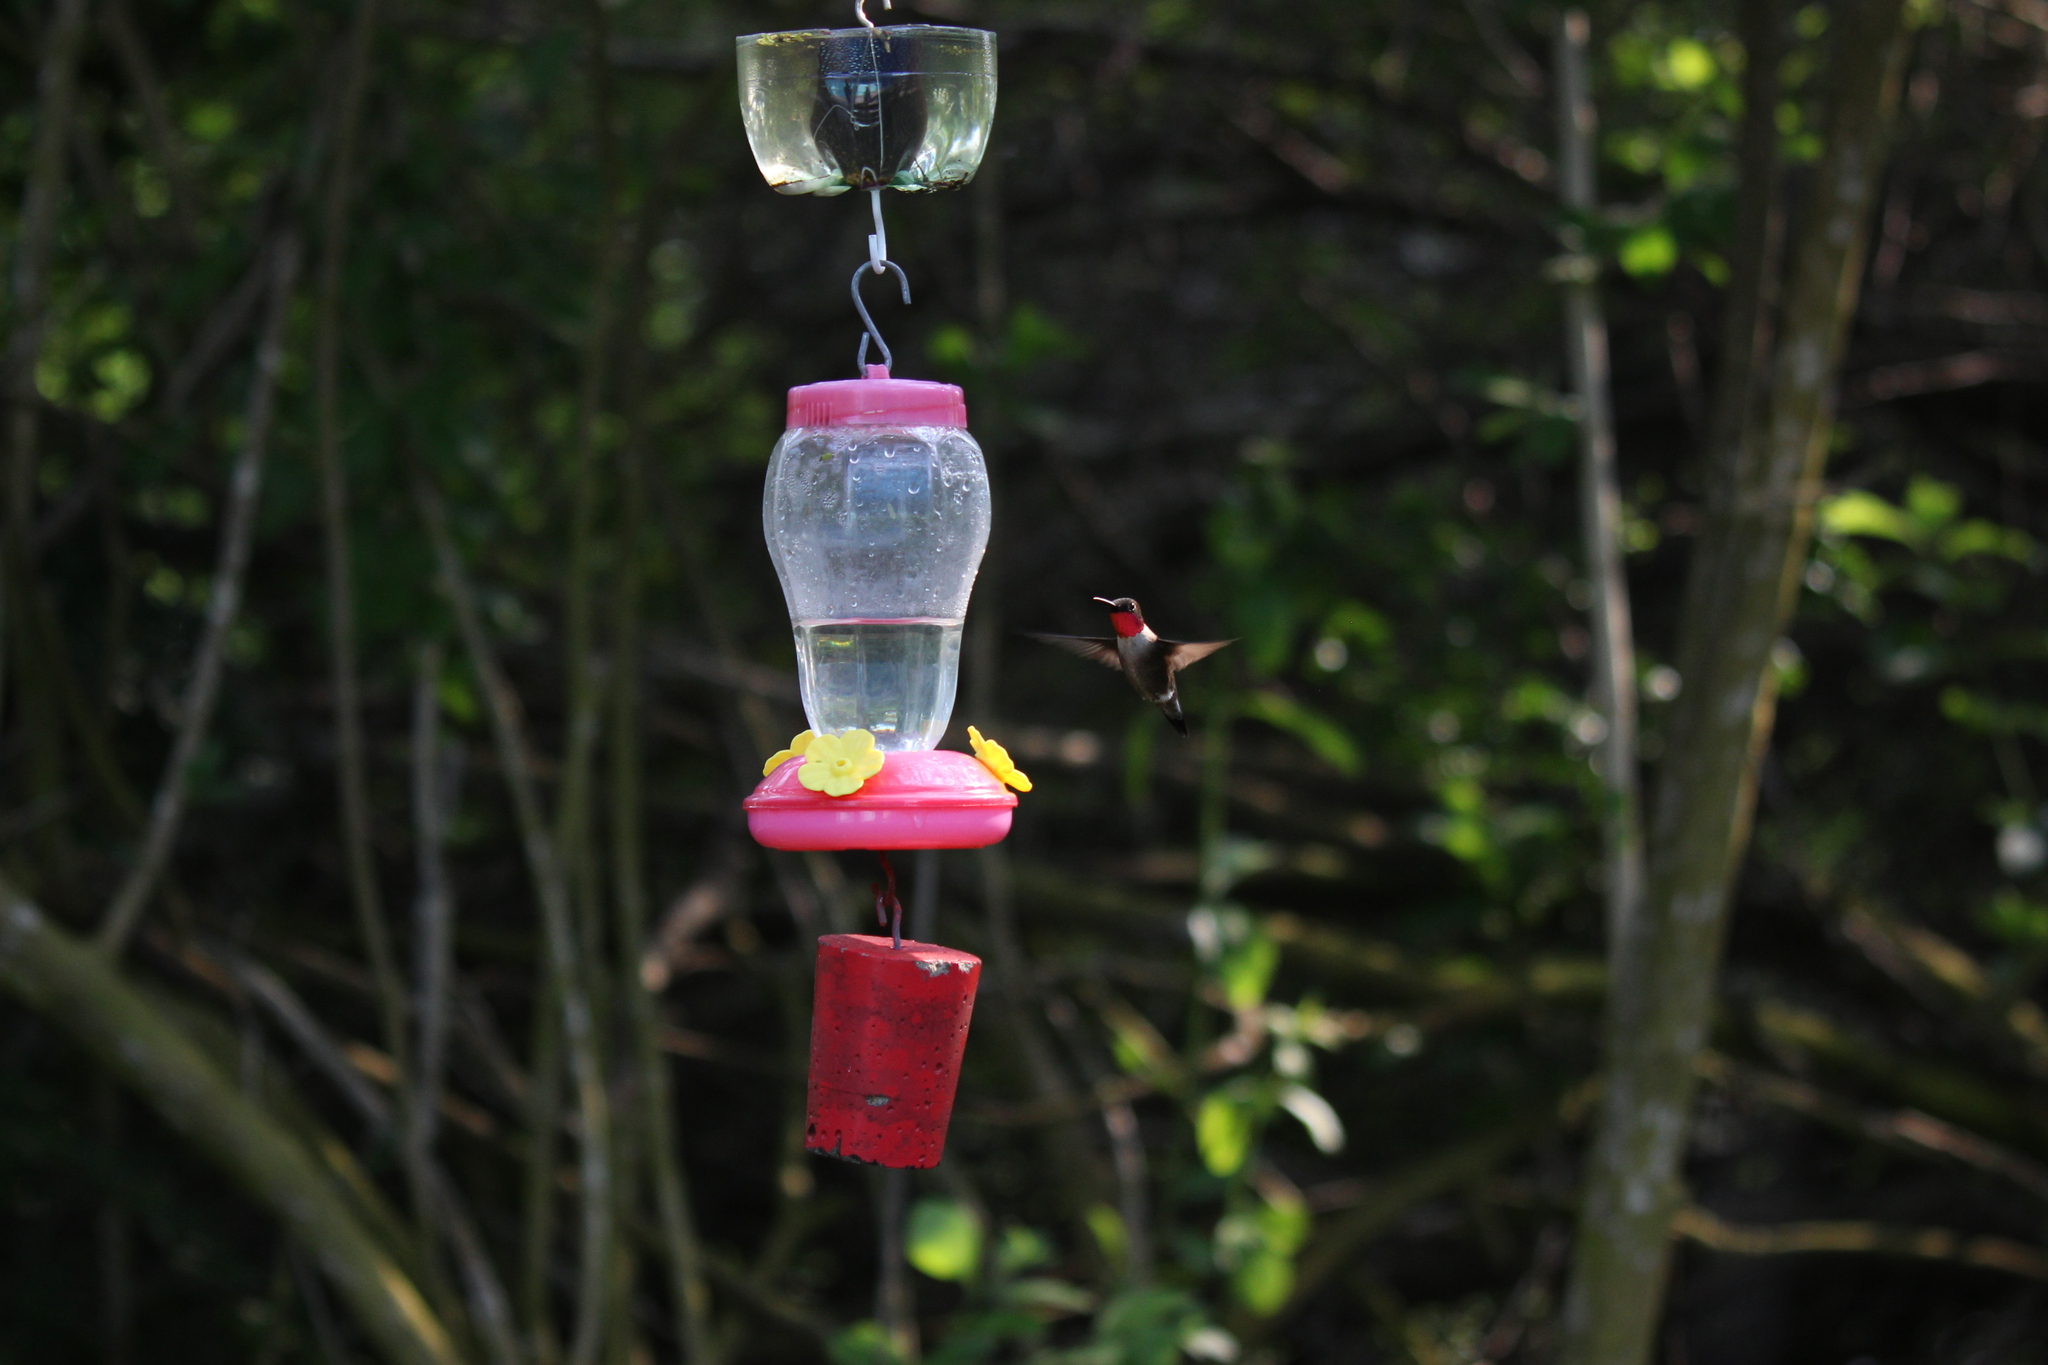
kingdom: Animalia
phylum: Chordata
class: Aves
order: Apodiformes
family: Trochilidae
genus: Archilochus
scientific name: Archilochus colubris
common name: Ruby-throated hummingbird
